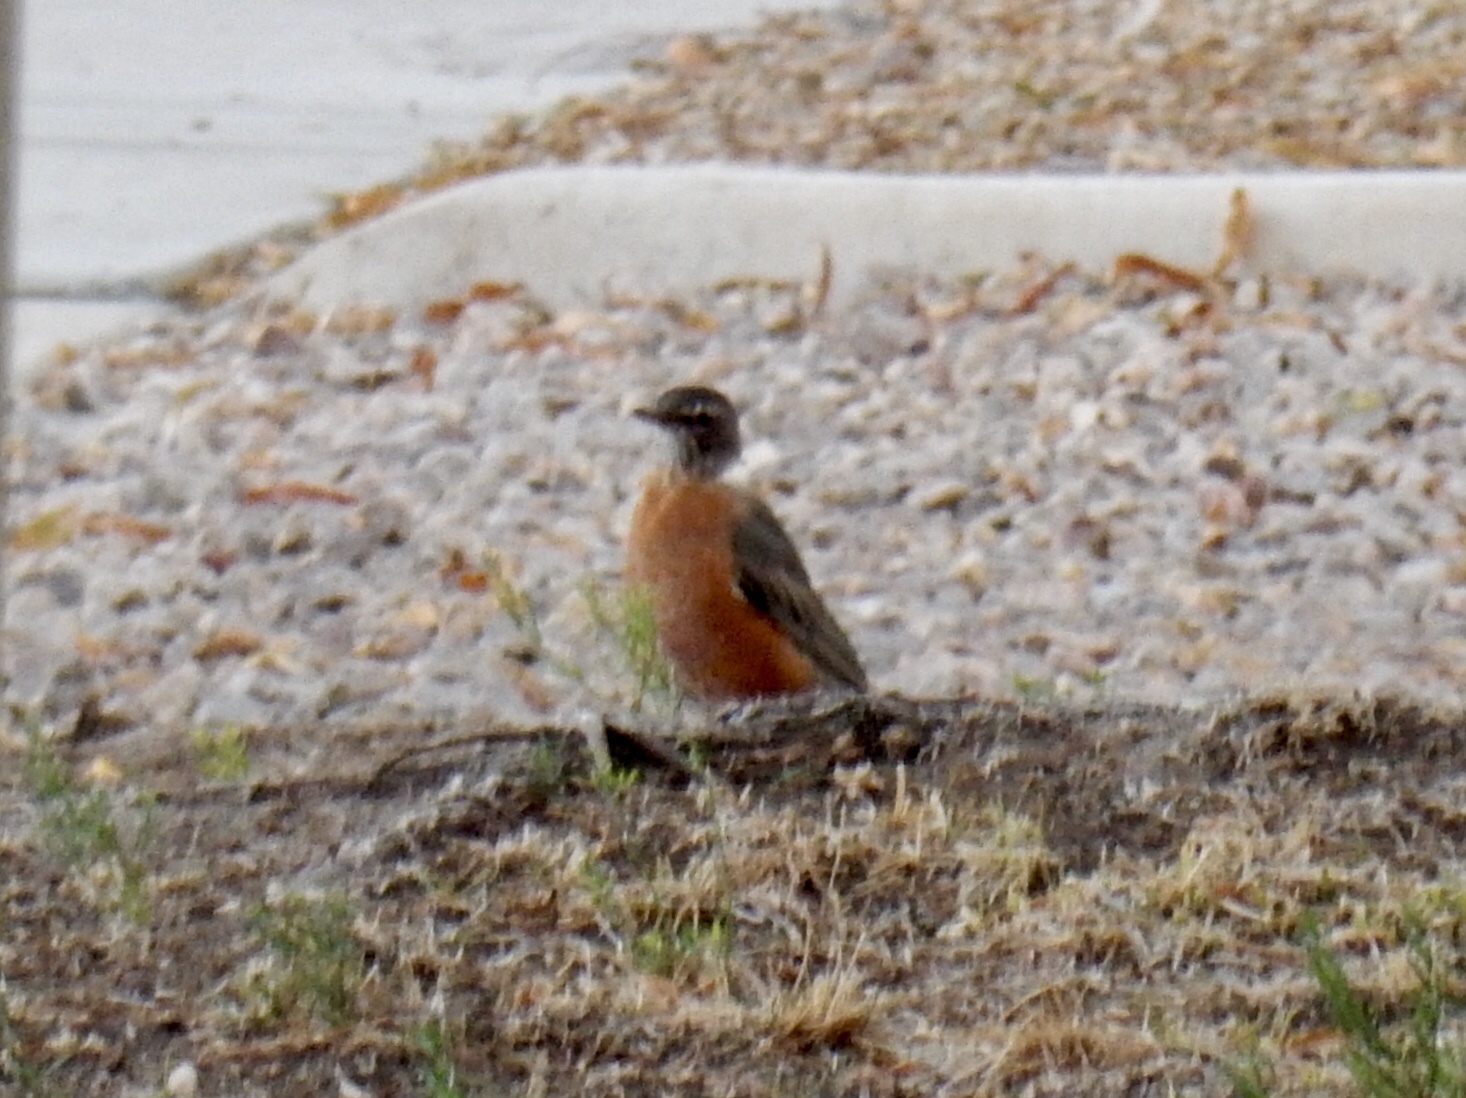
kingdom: Animalia
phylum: Chordata
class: Aves
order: Passeriformes
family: Turdidae
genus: Turdus
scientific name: Turdus migratorius
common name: American robin
